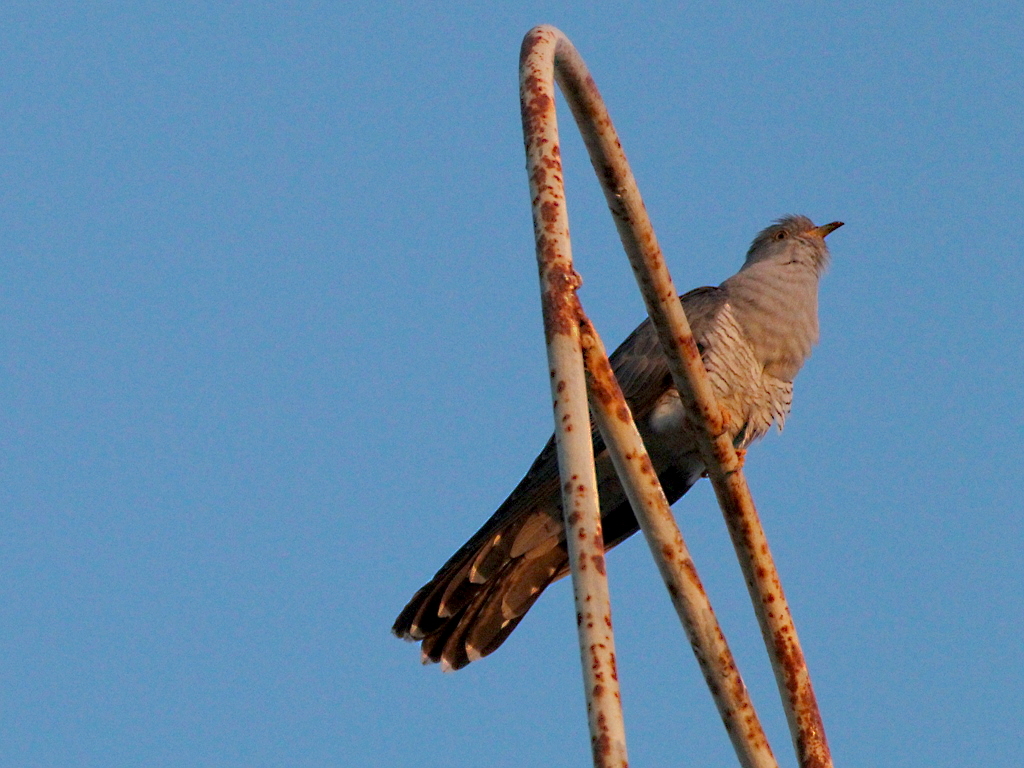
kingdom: Animalia
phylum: Chordata
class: Aves
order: Cuculiformes
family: Cuculidae
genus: Cuculus
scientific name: Cuculus canorus
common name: Common cuckoo
